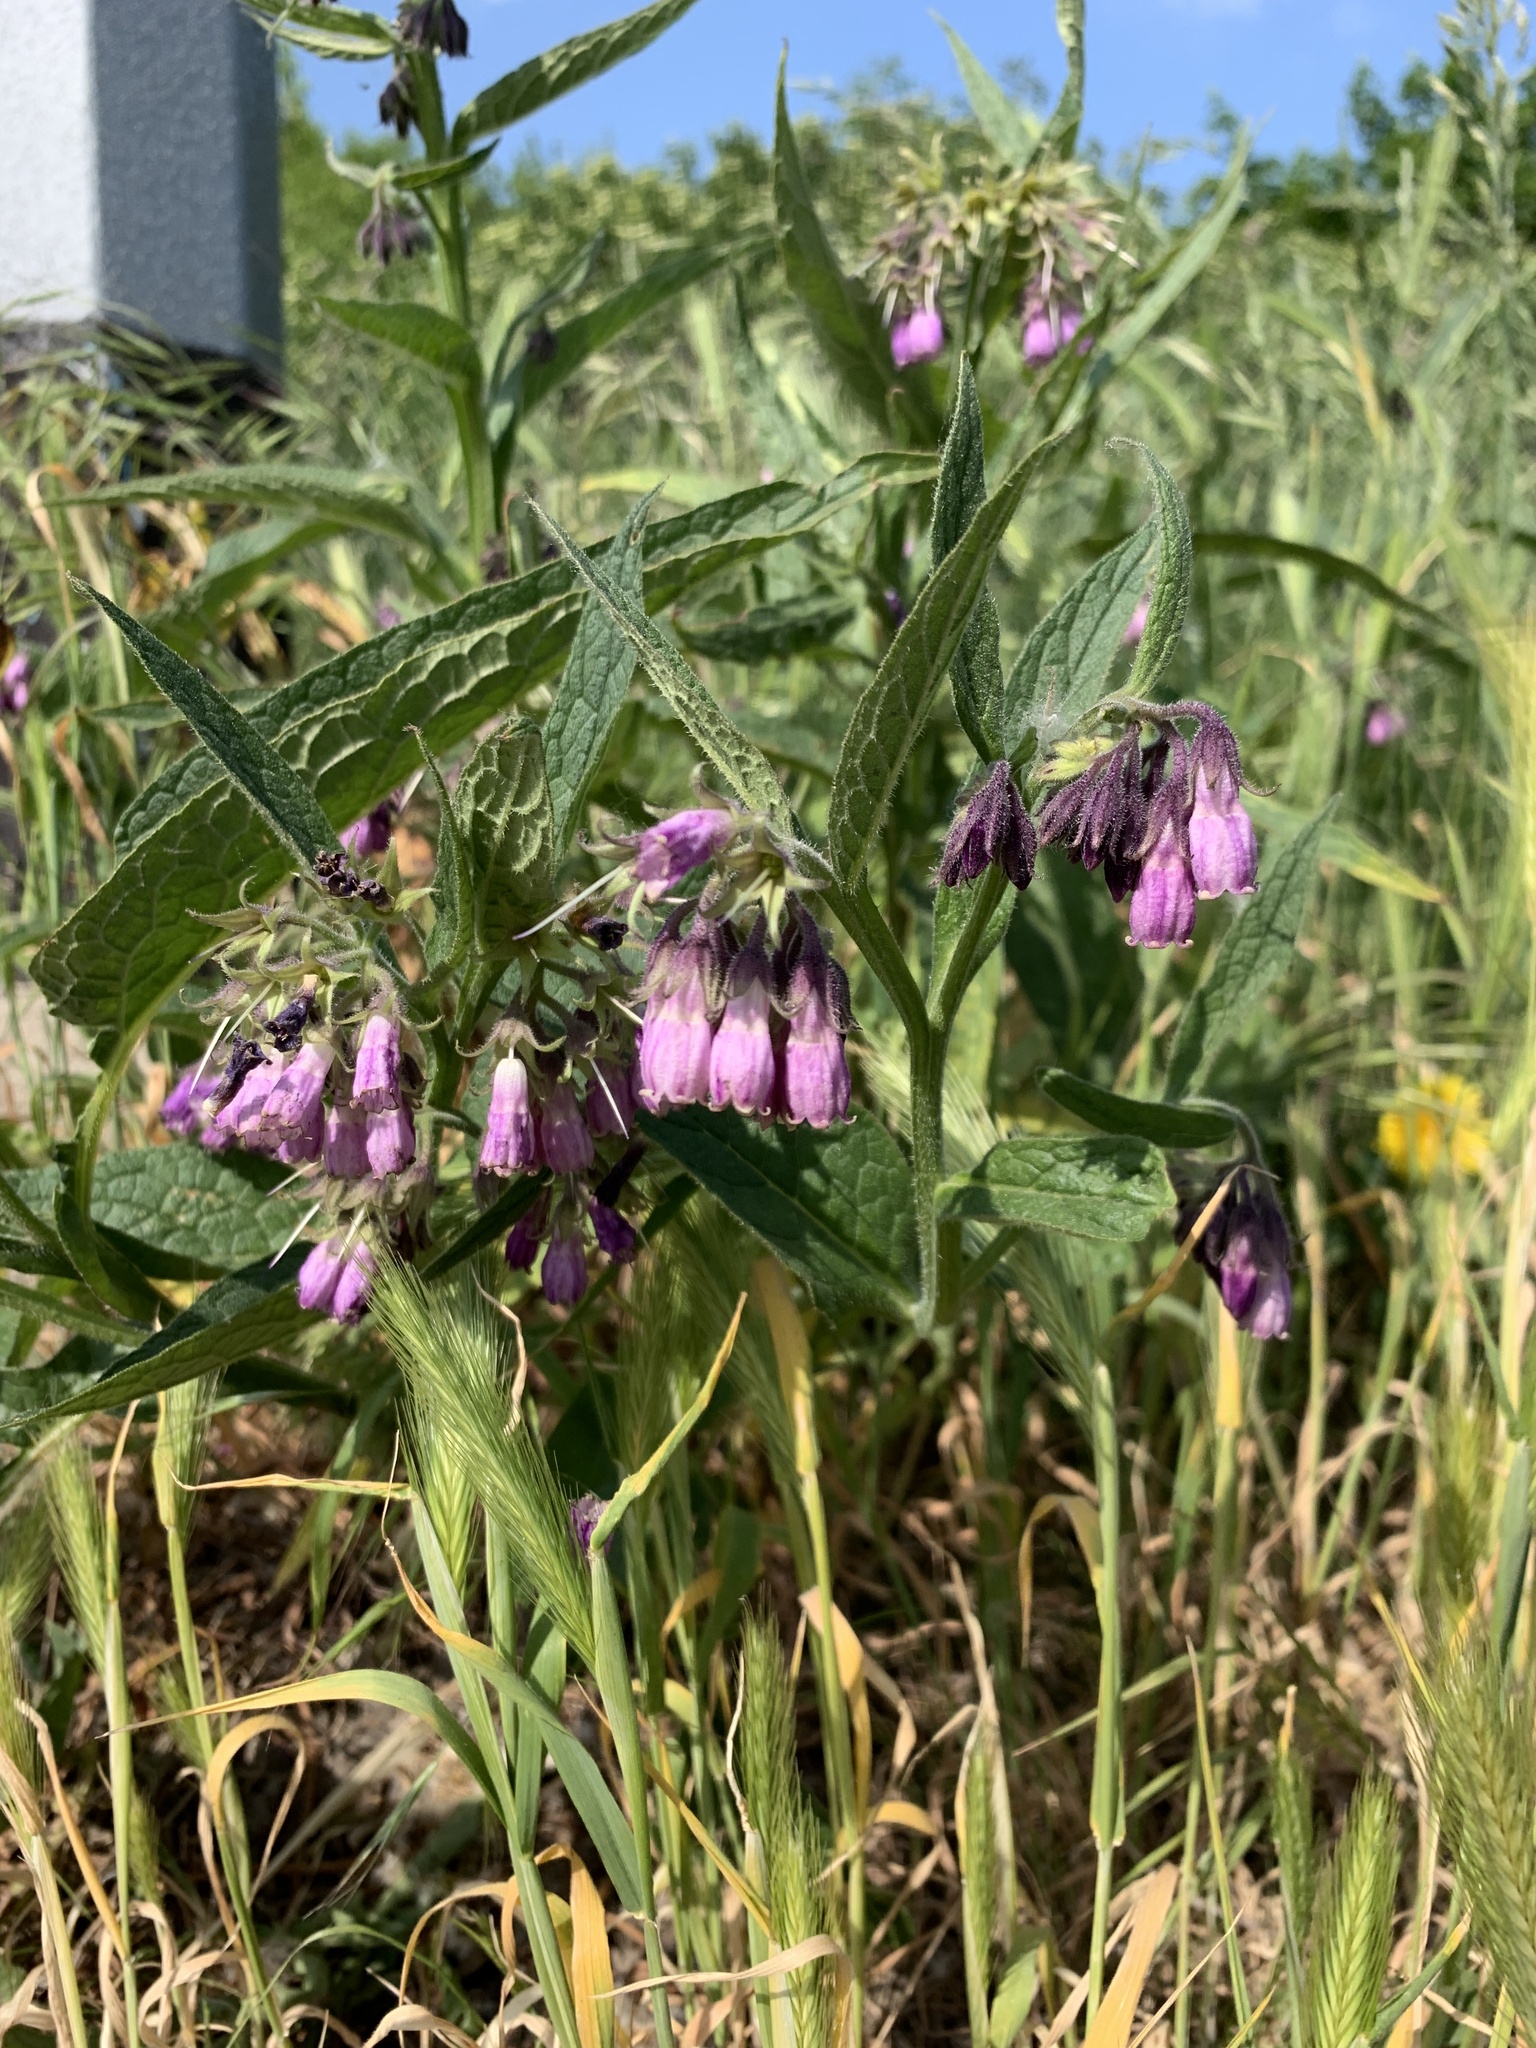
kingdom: Plantae
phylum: Tracheophyta
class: Magnoliopsida
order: Boraginales
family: Boraginaceae
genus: Symphytum
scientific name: Symphytum officinale
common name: Common comfrey
